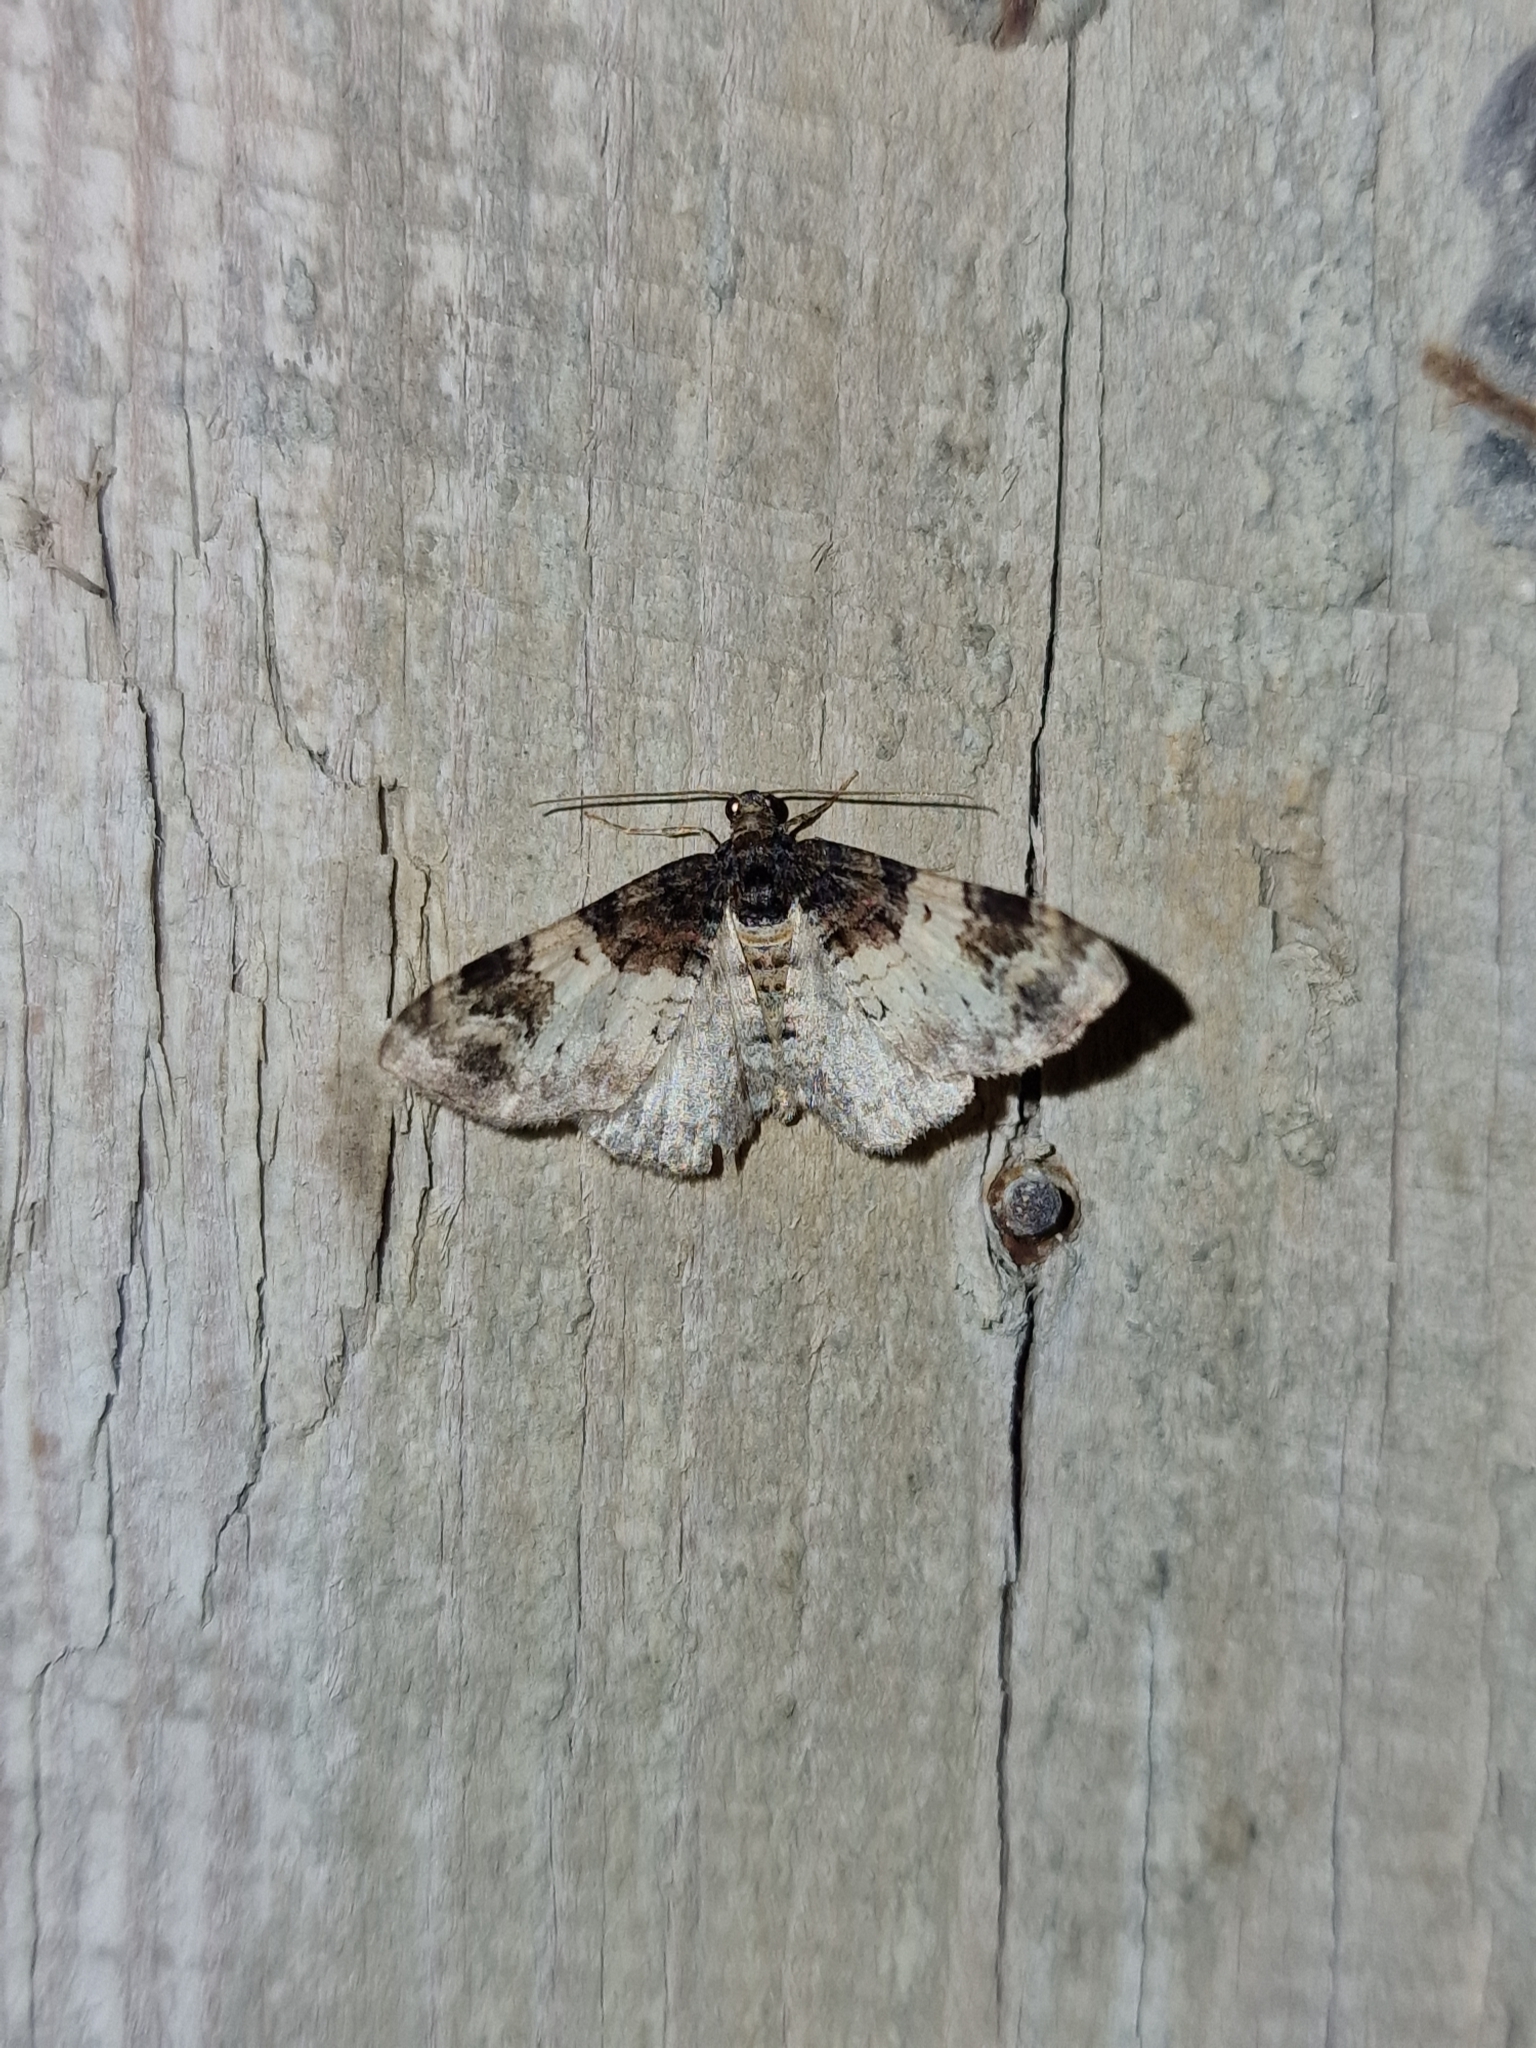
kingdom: Animalia
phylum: Arthropoda
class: Insecta
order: Lepidoptera
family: Geometridae
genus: Catarhoe
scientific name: Catarhoe cuculata
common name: Royal mantle
